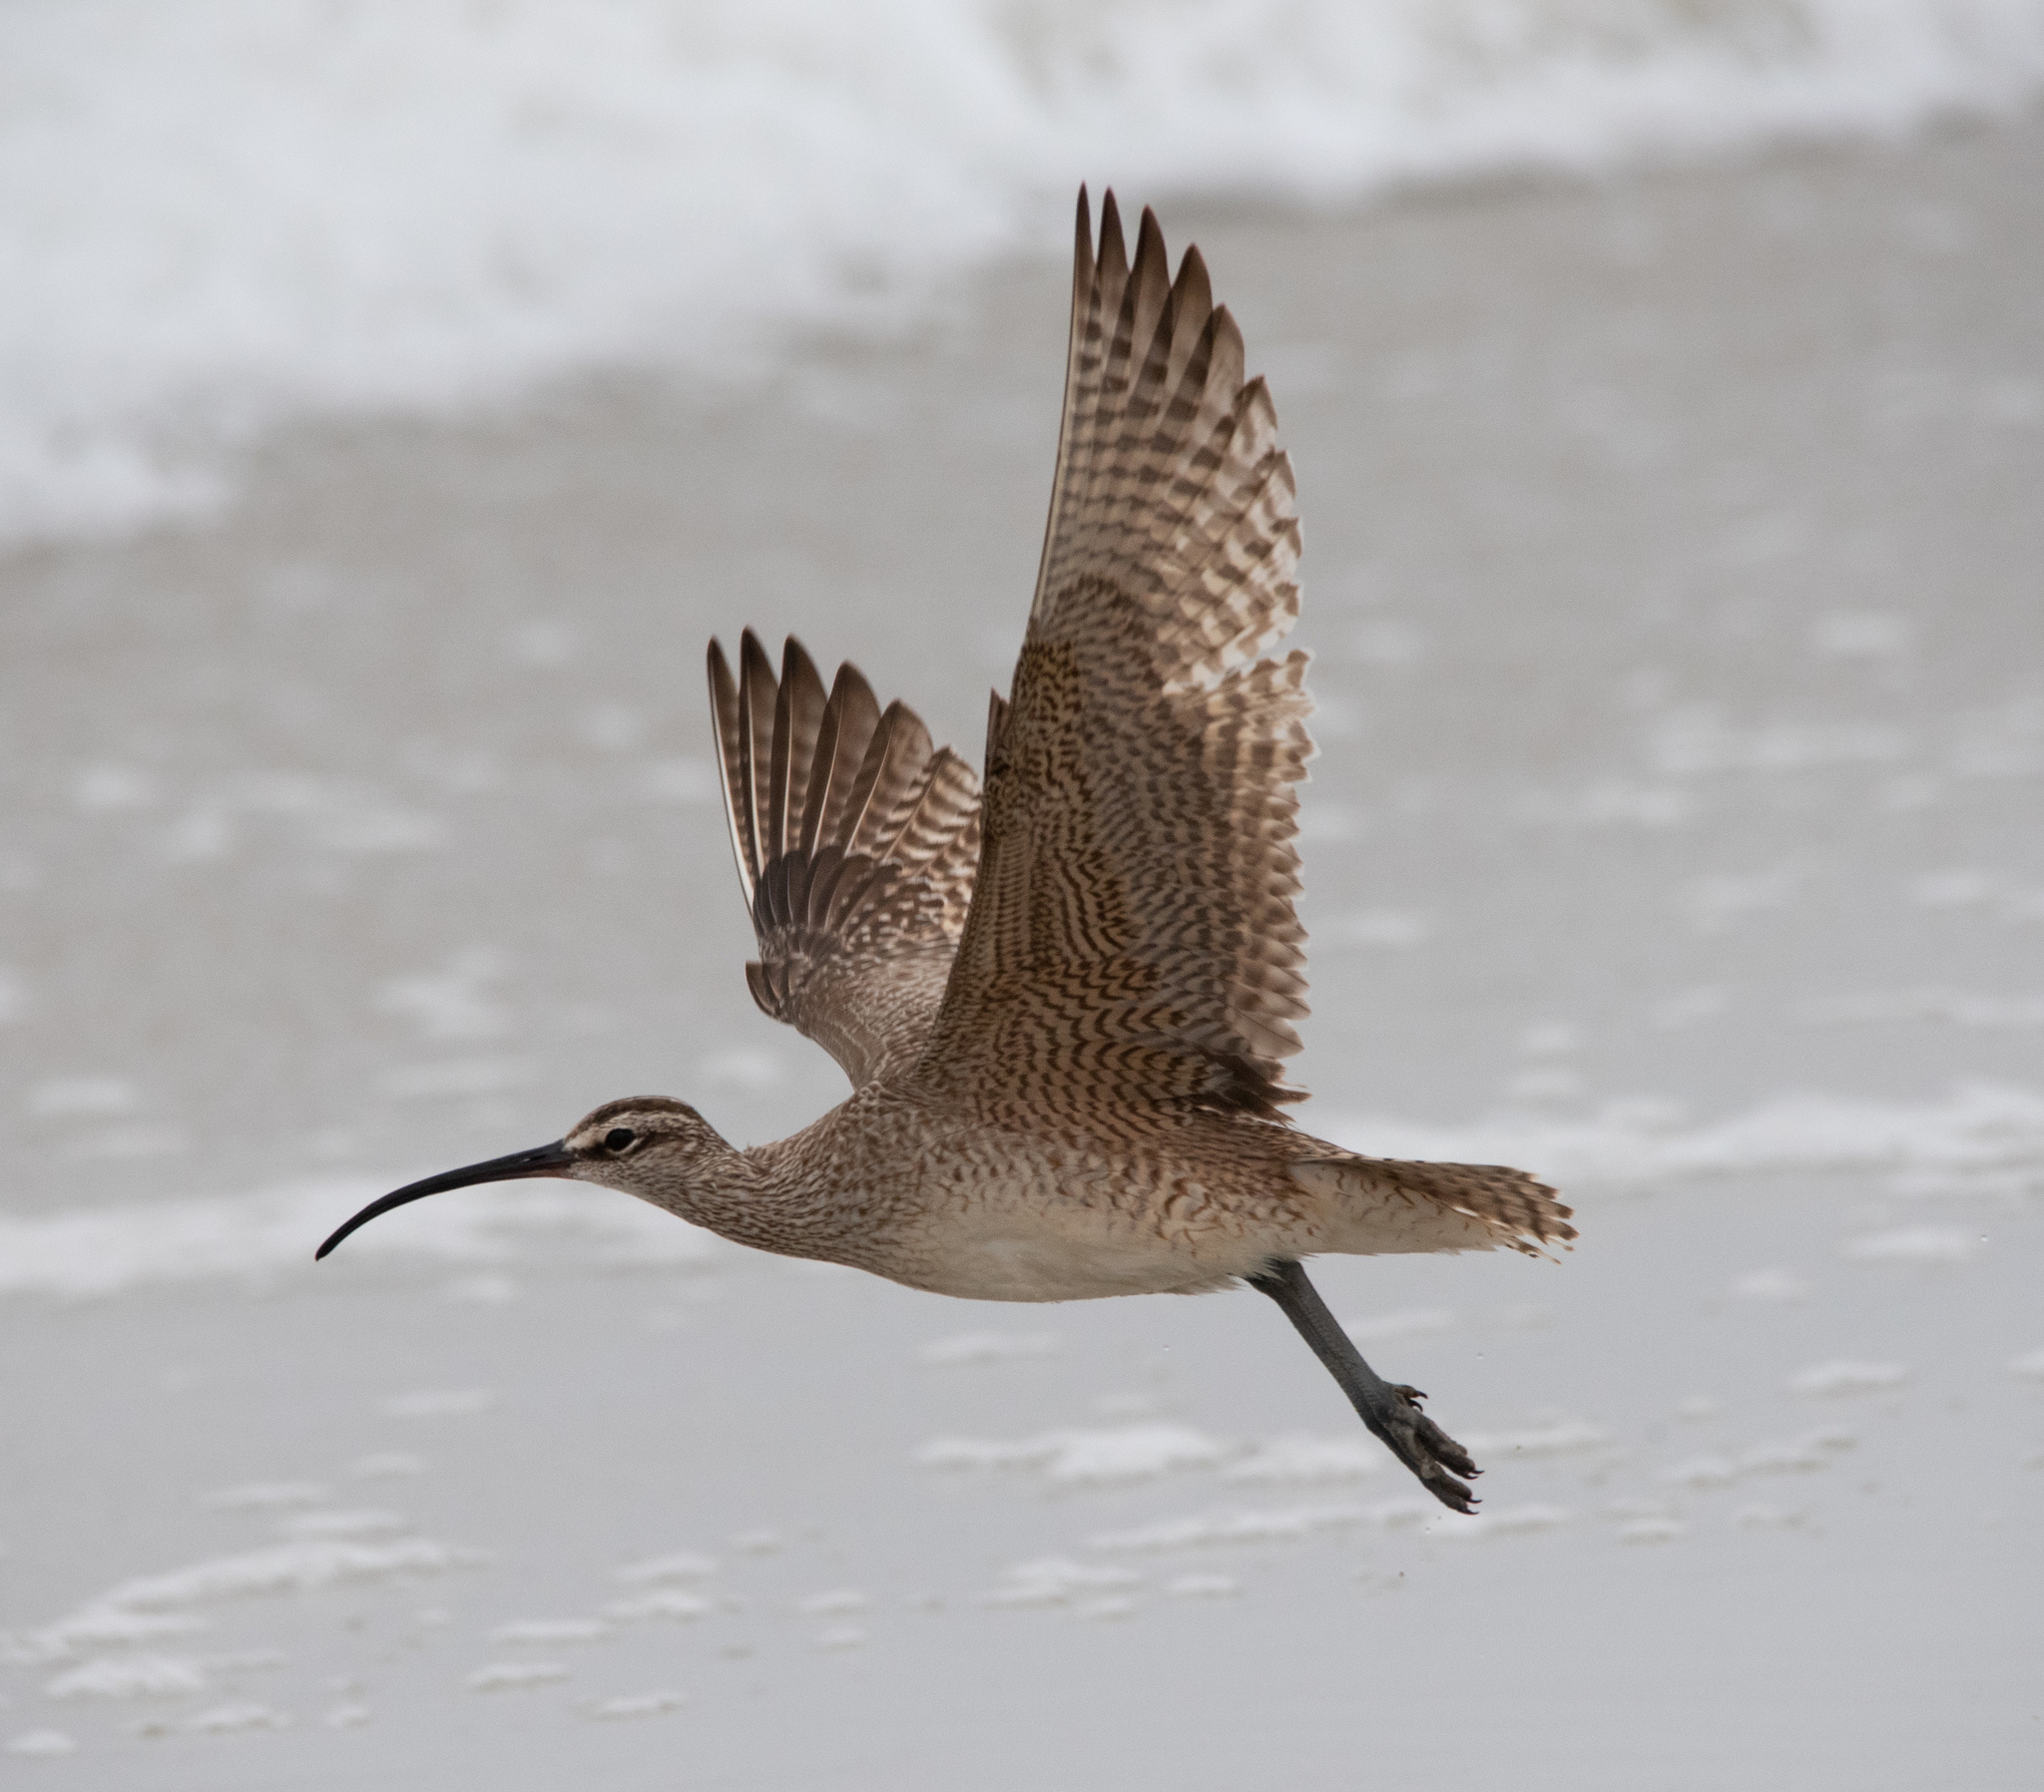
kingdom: Animalia
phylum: Chordata
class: Aves
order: Charadriiformes
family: Scolopacidae
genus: Numenius
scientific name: Numenius phaeopus
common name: Whimbrel
